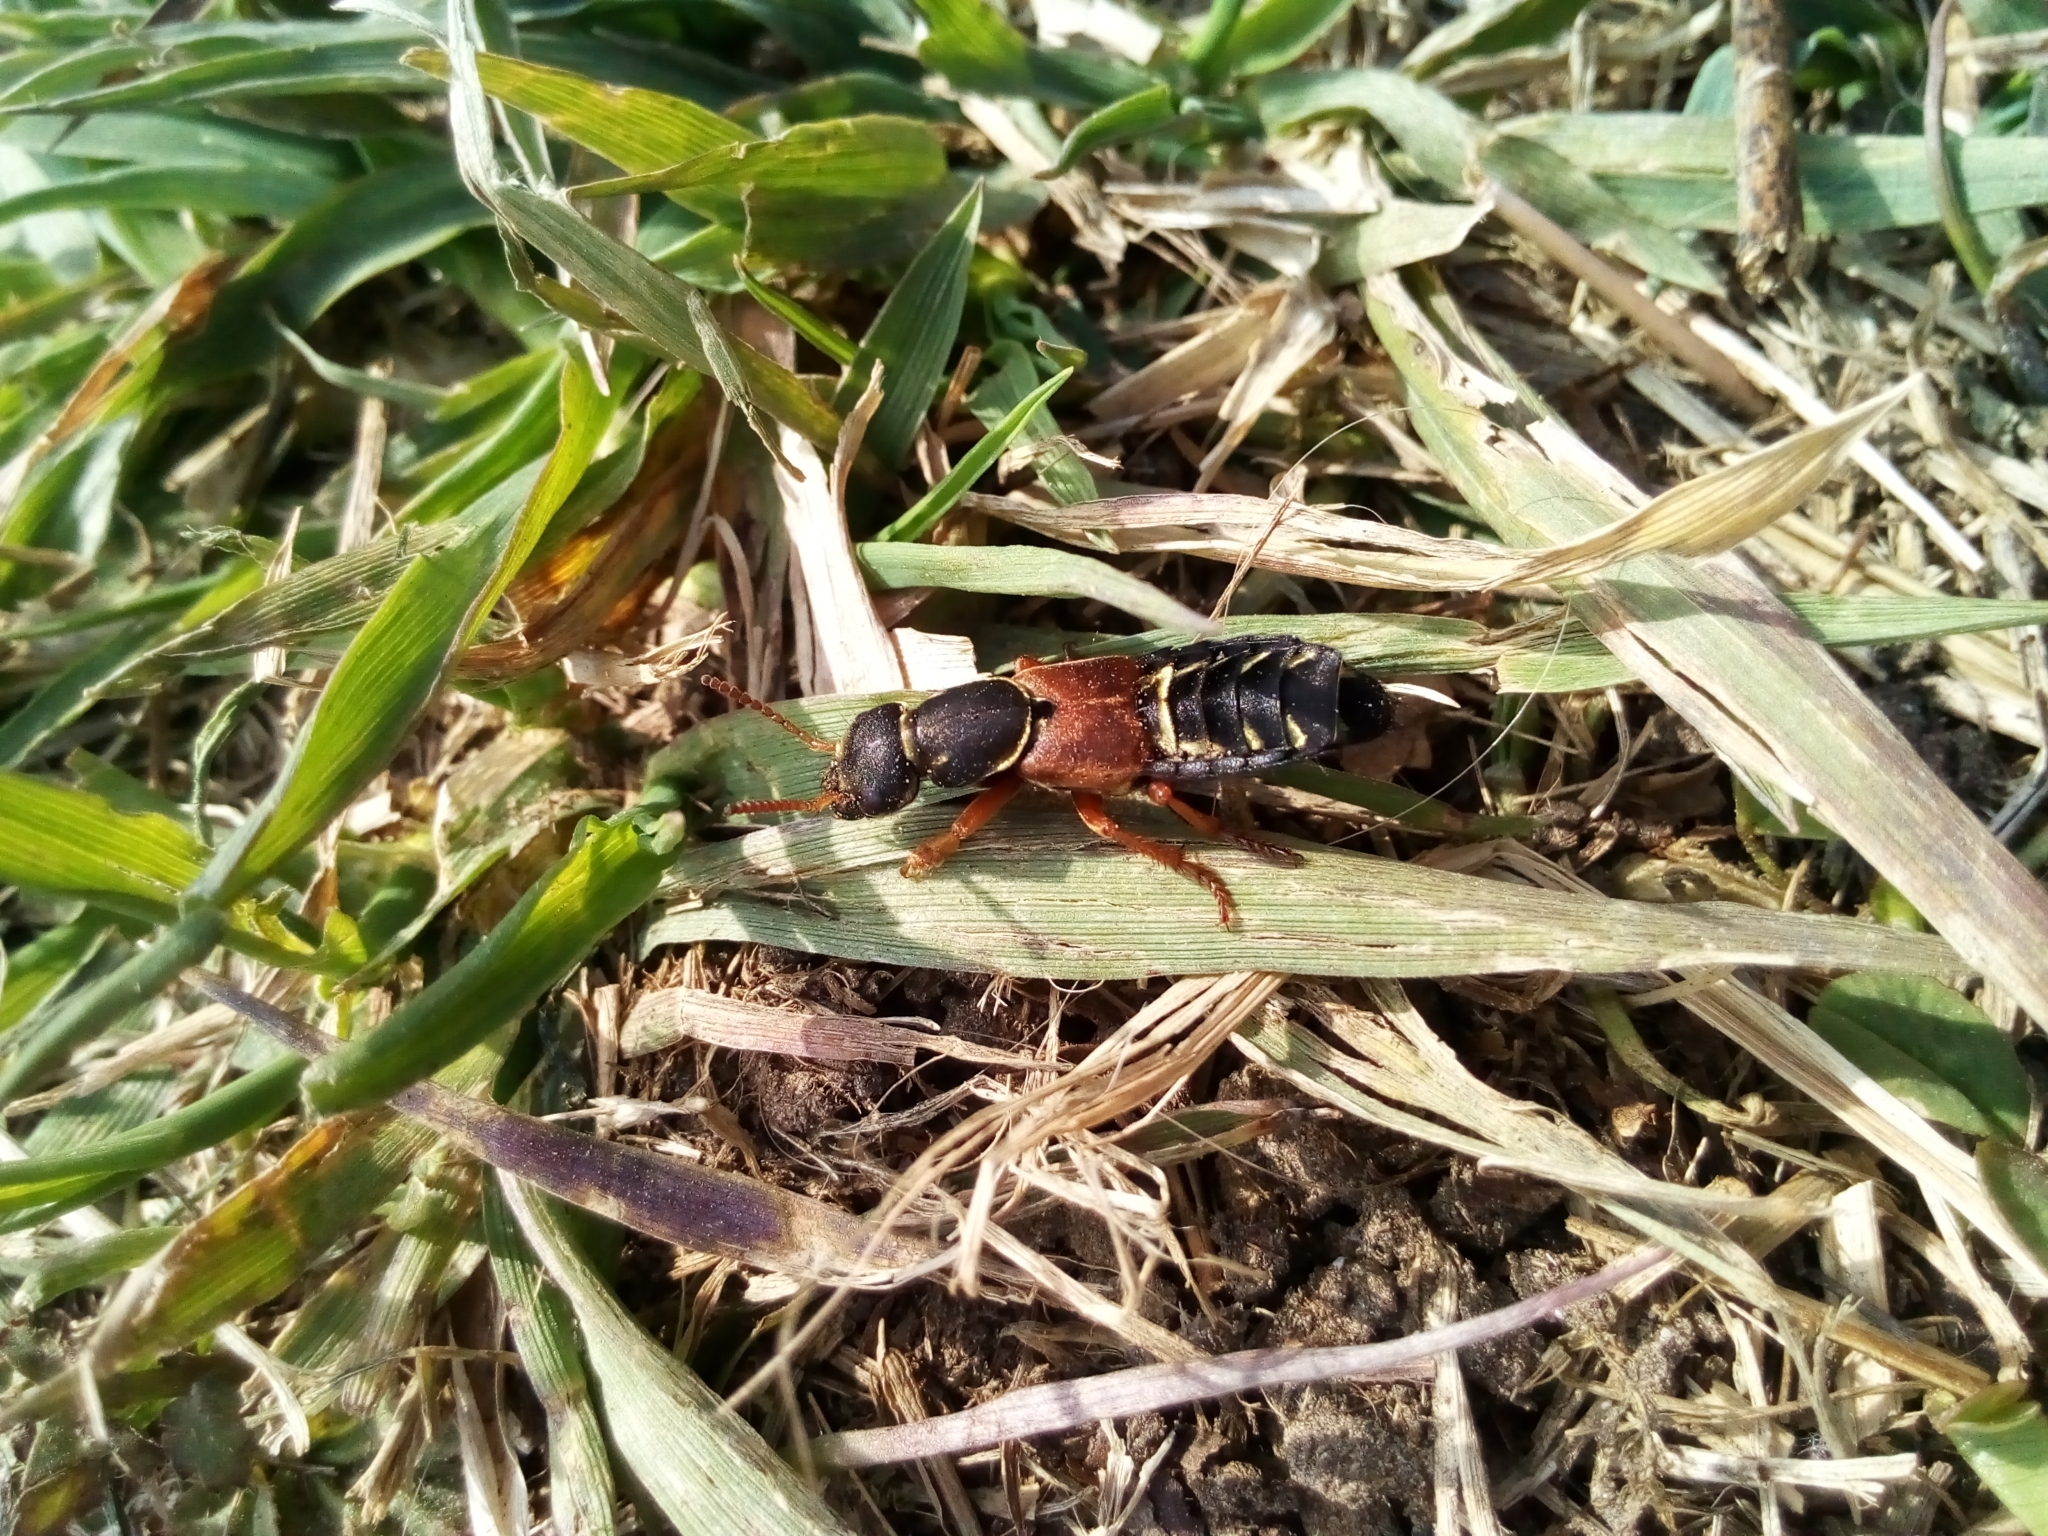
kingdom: Animalia
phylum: Arthropoda
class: Insecta
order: Coleoptera
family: Staphylinidae
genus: Staphylinus
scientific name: Staphylinus caesareus
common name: Staph beetle
